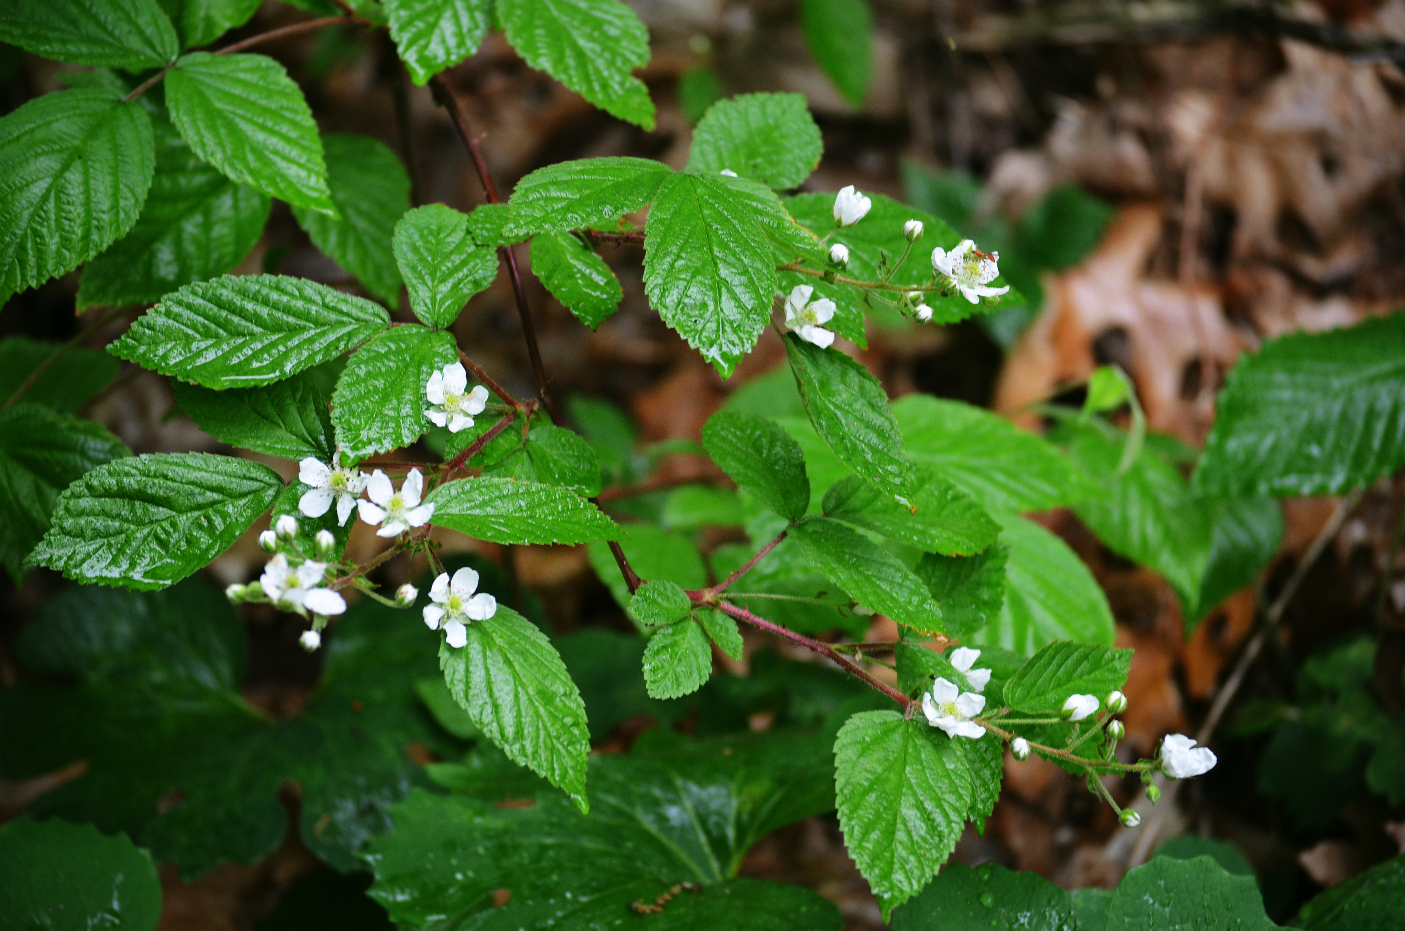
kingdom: Plantae
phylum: Tracheophyta
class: Magnoliopsida
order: Rosales
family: Rosaceae
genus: Rubus
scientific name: Rubus allegheniensis
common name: Allegheny blackberry
